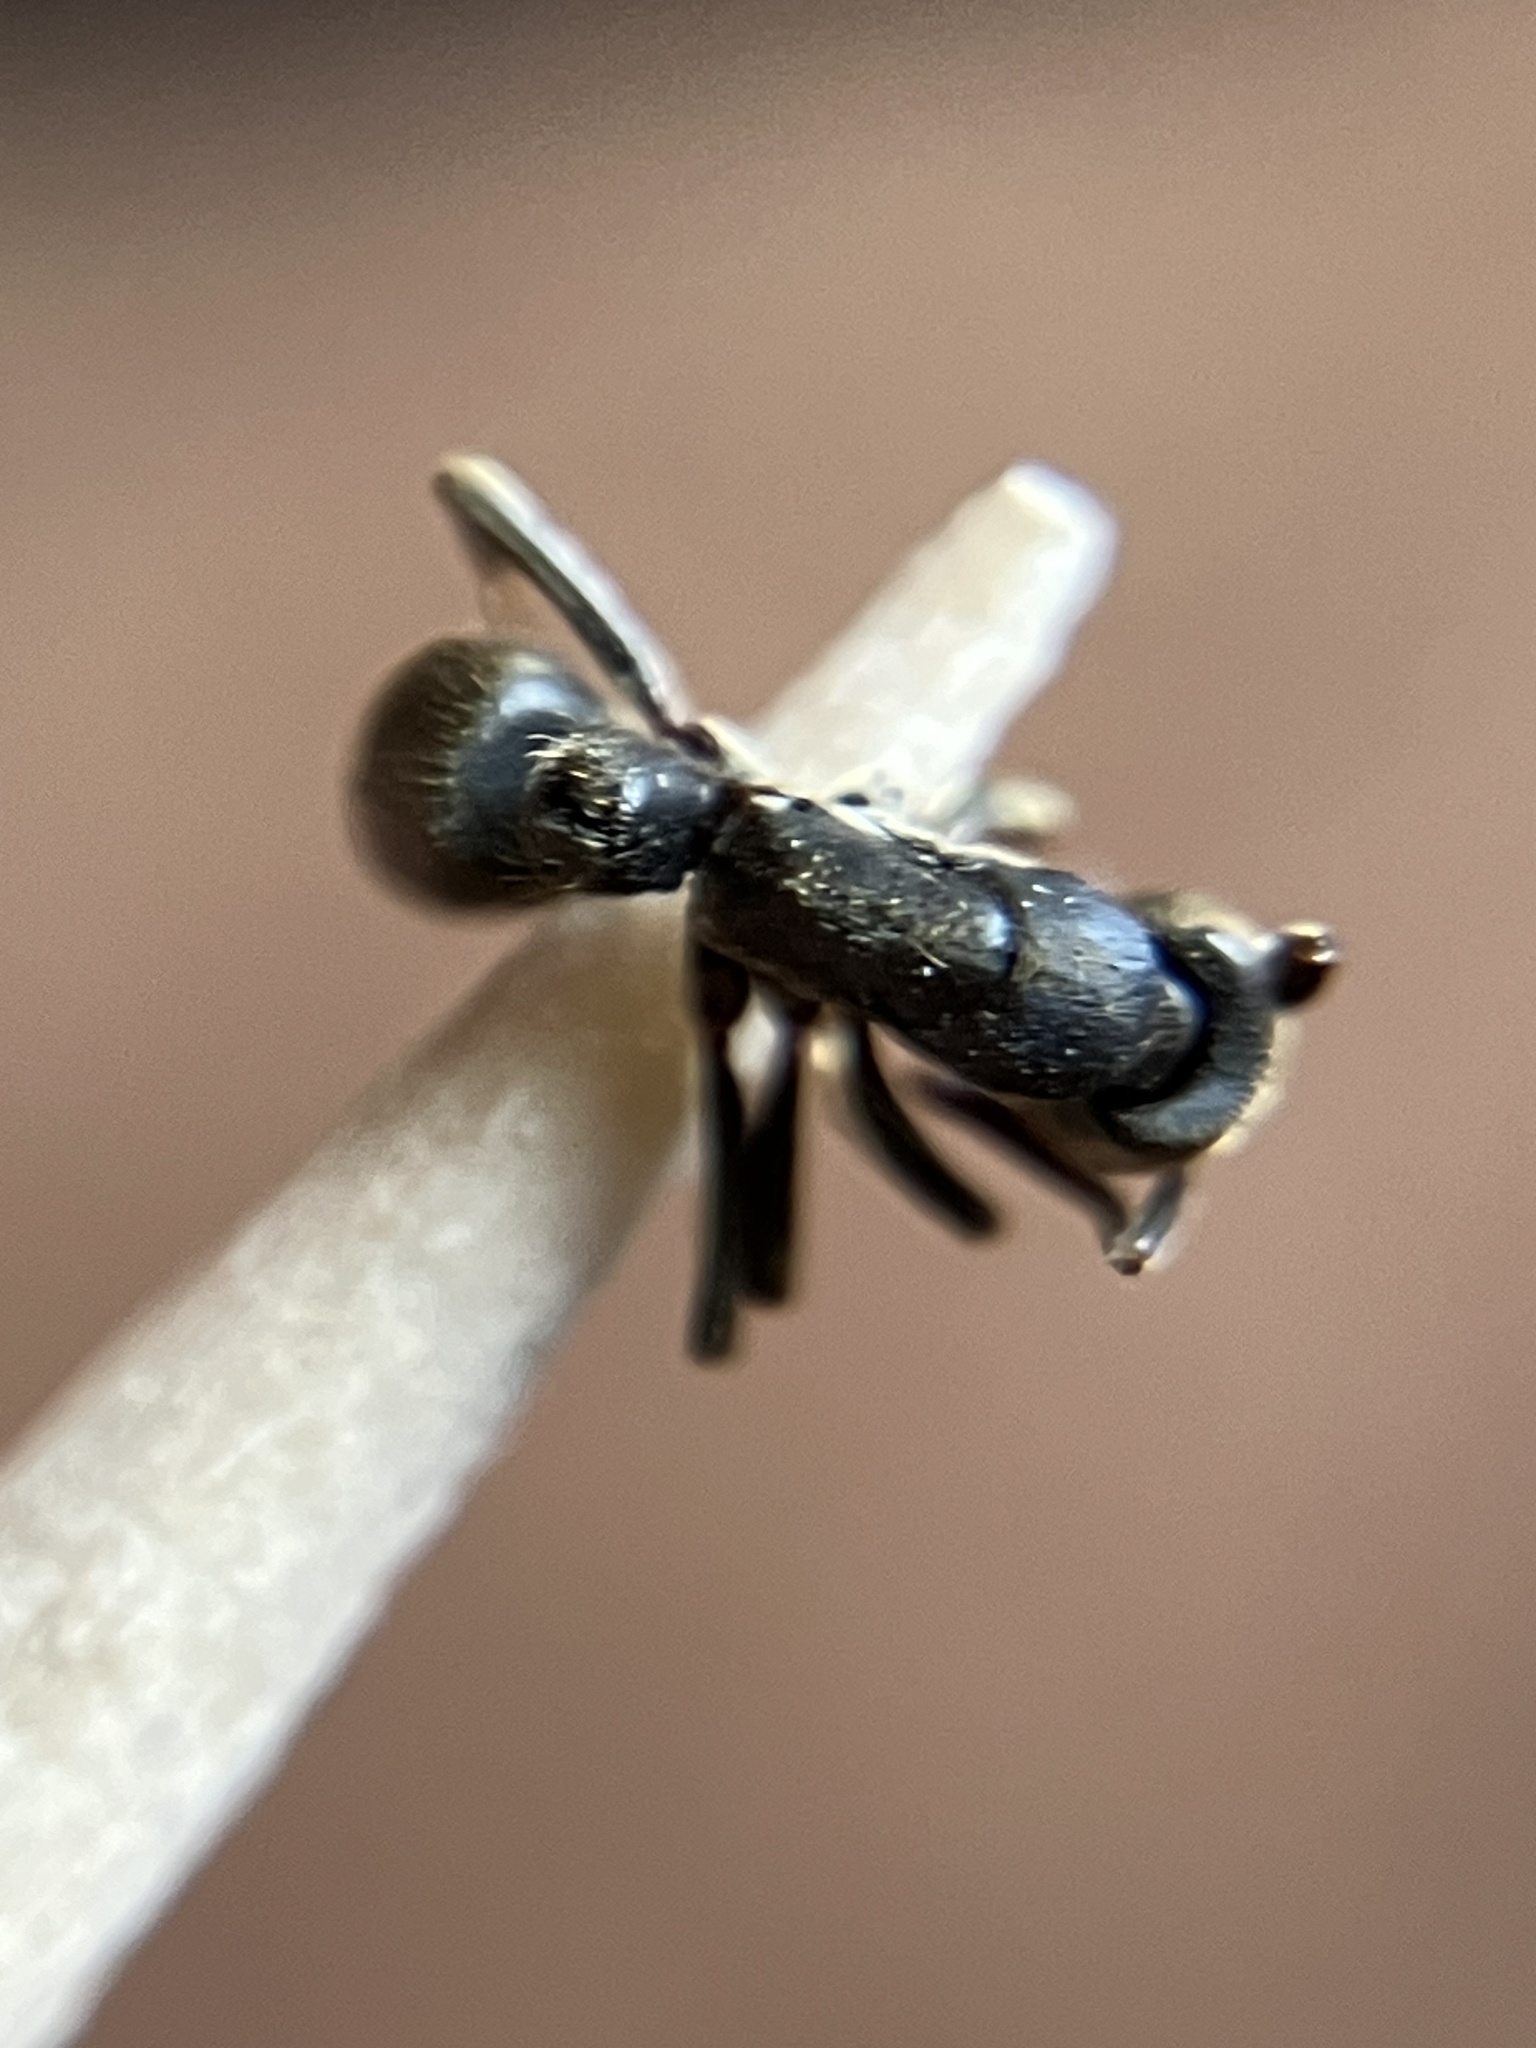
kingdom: Animalia
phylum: Arthropoda
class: Insecta
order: Hymenoptera
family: Formicidae
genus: Bothroponera
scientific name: Bothroponera
